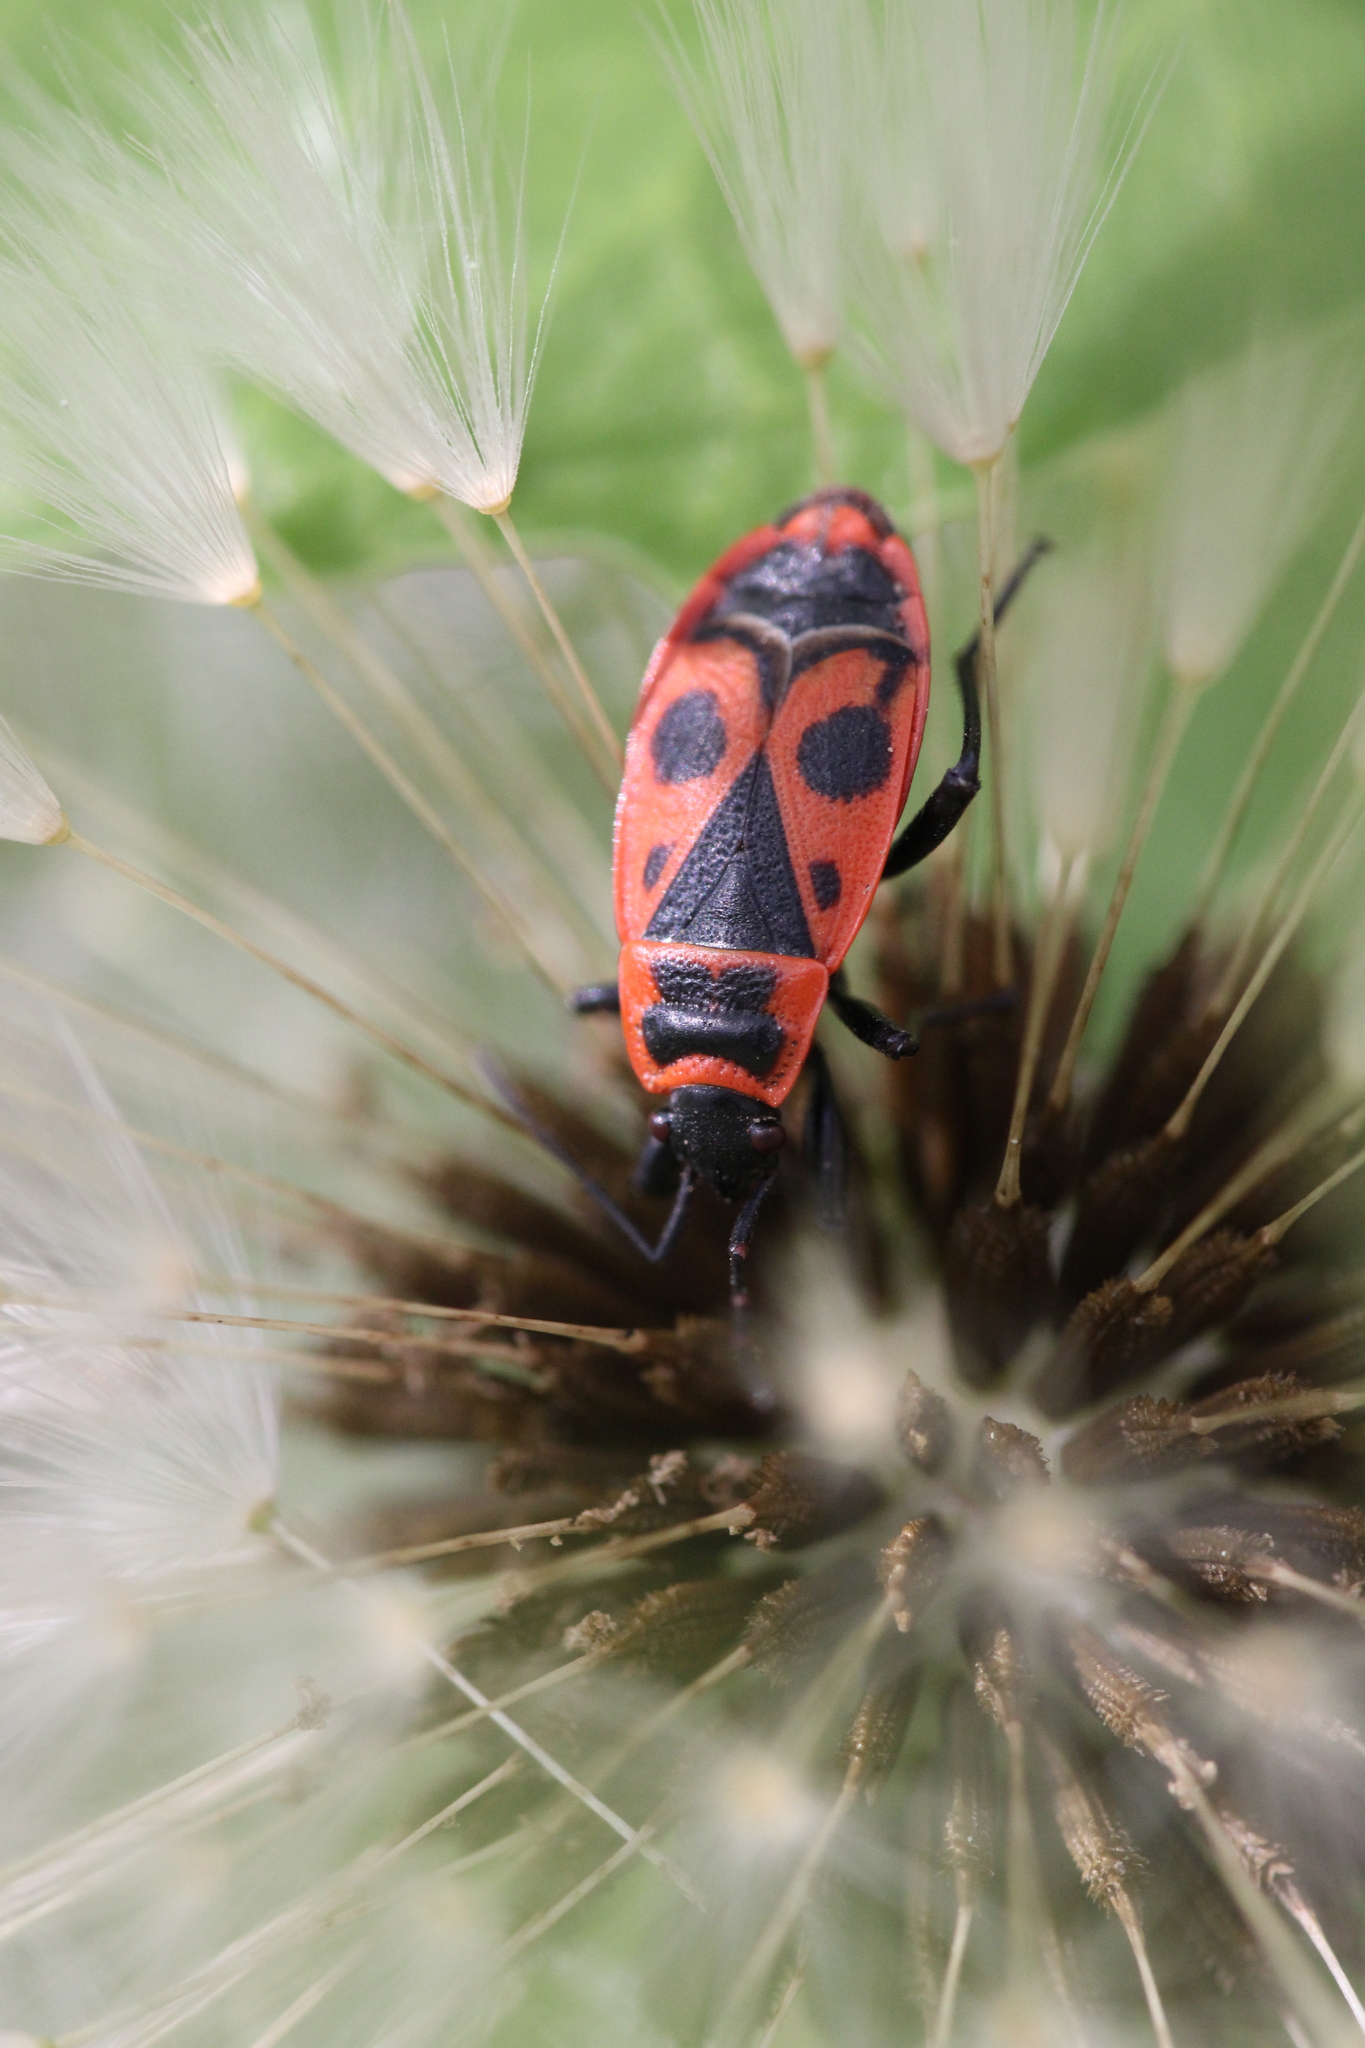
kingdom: Animalia
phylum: Arthropoda
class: Insecta
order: Hemiptera
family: Pyrrhocoridae
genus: Pyrrhocoris
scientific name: Pyrrhocoris apterus
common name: Firebug
